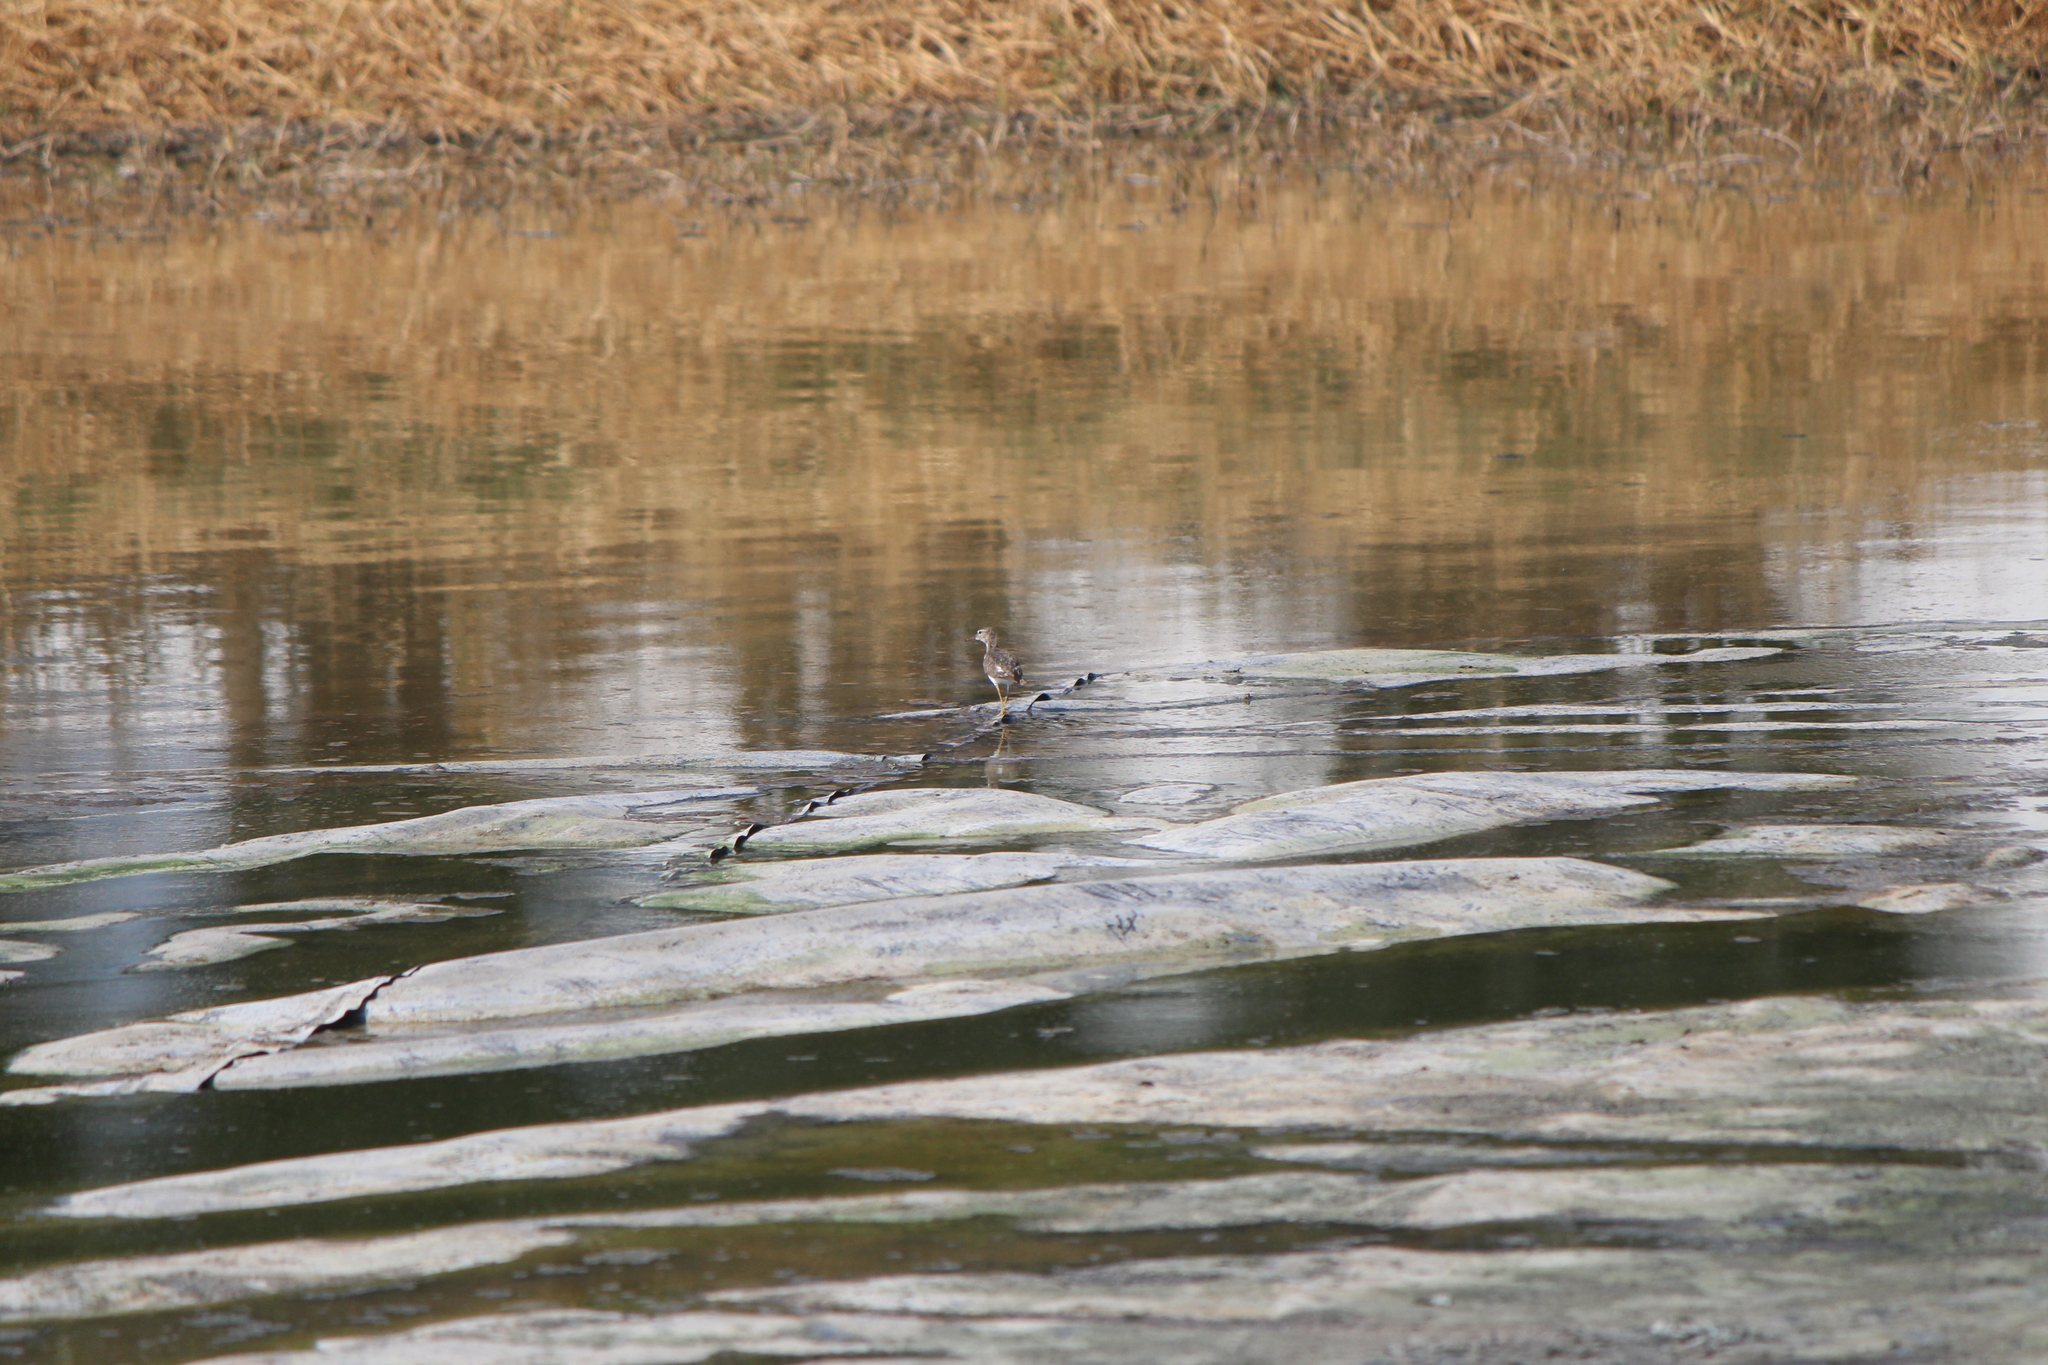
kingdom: Animalia
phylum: Chordata
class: Aves
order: Charadriiformes
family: Scolopacidae
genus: Actitis
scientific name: Actitis macularius
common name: Spotted sandpiper
